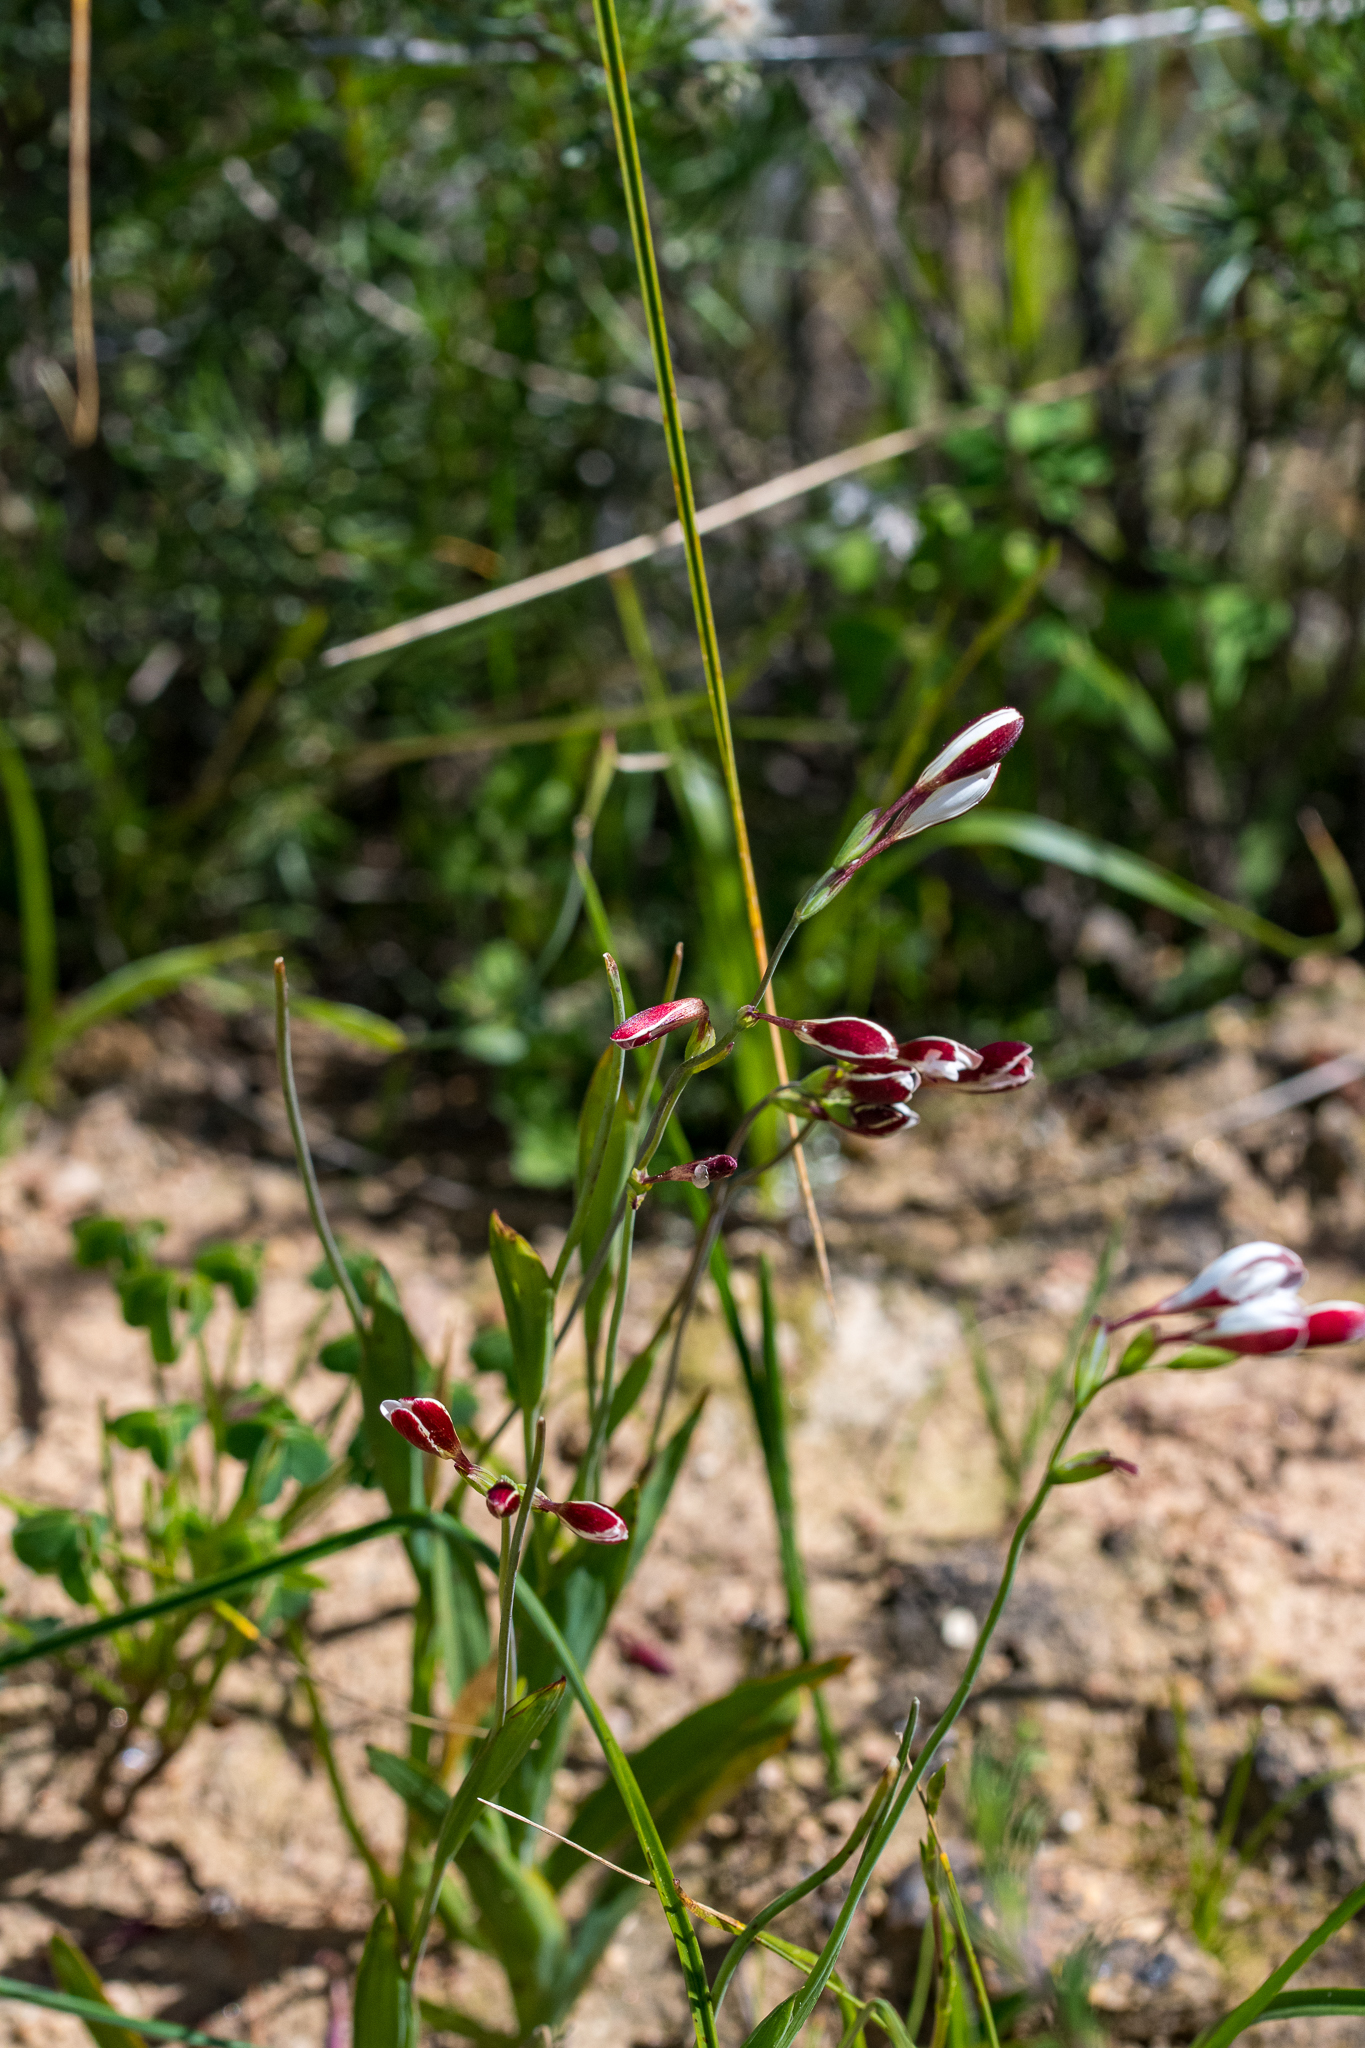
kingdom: Plantae
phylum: Tracheophyta
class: Liliopsida
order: Asparagales
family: Iridaceae
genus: Hesperantha
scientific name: Hesperantha falcata
